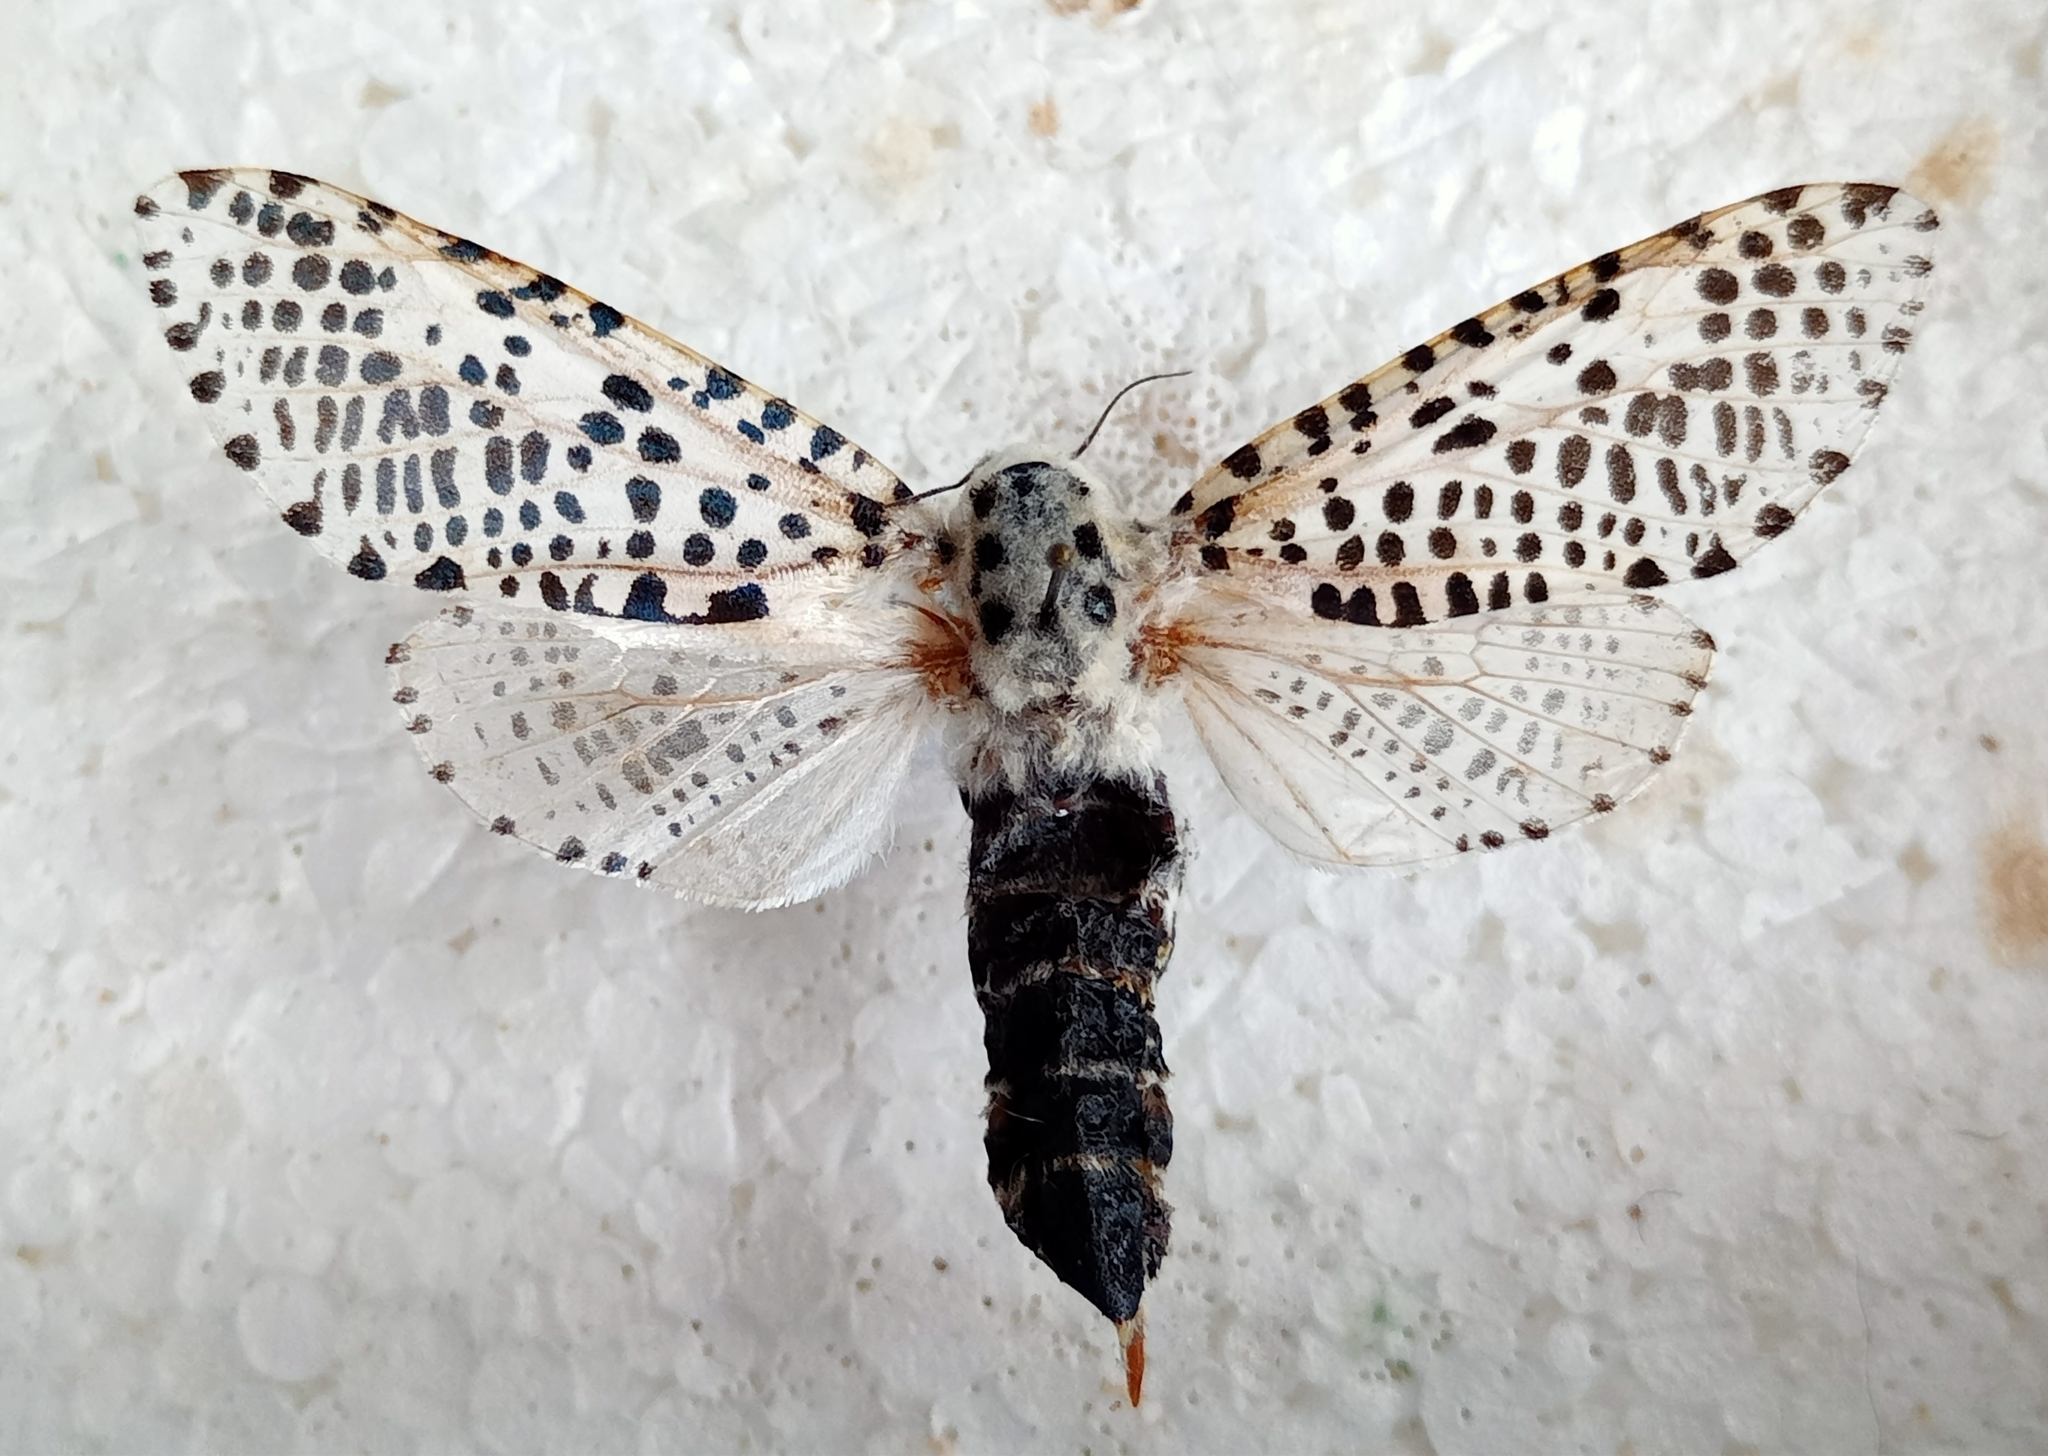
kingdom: Animalia
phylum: Arthropoda
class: Insecta
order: Lepidoptera
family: Cossidae
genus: Zeuzera
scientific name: Zeuzera pyrina
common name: Leopard moth
